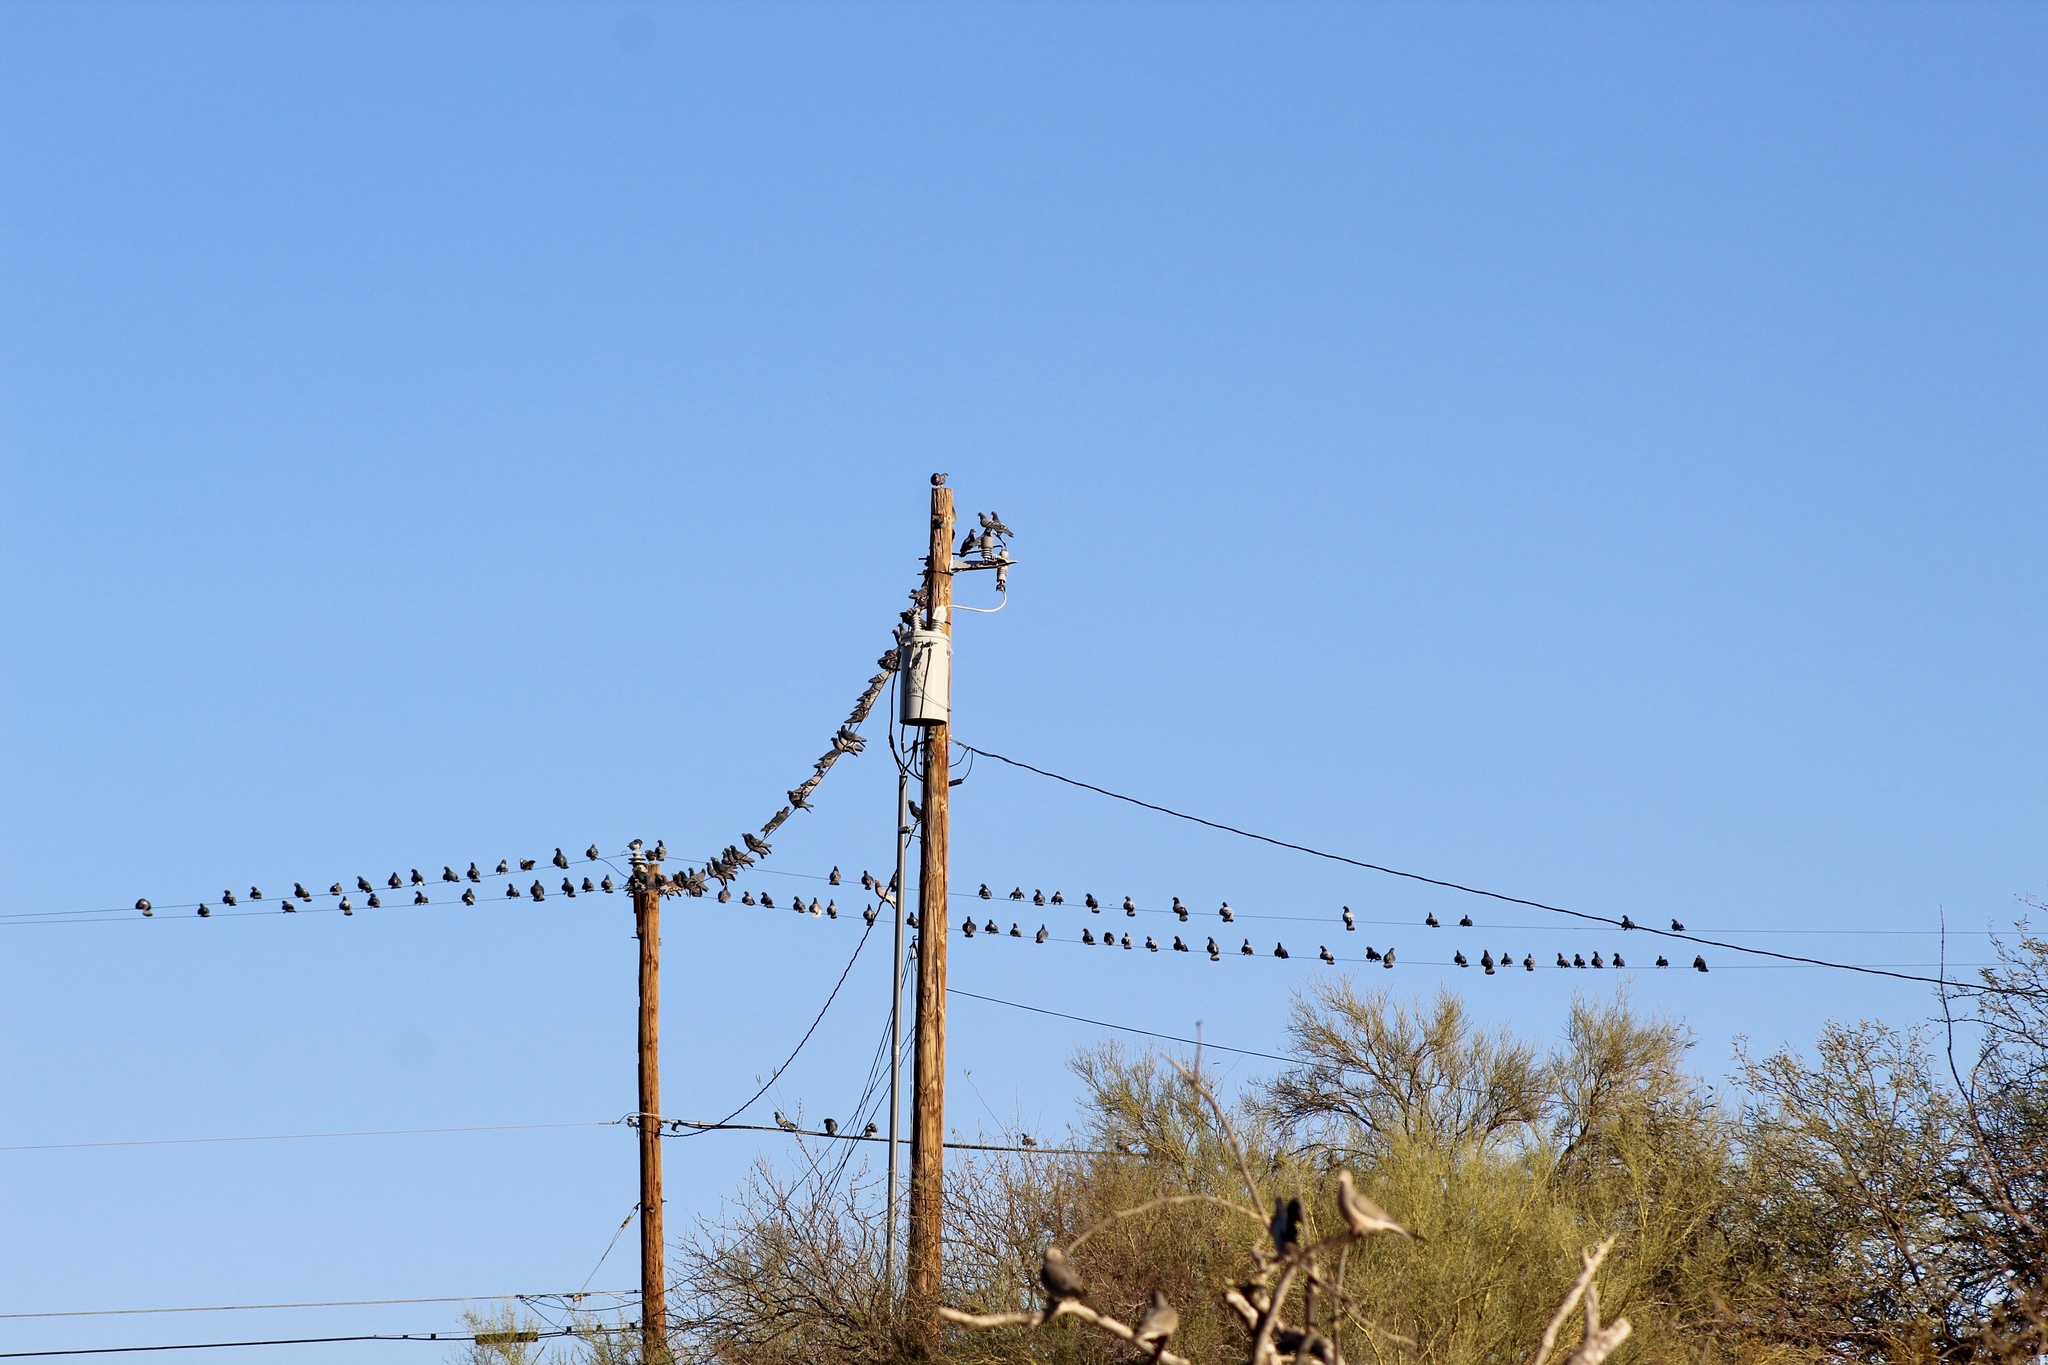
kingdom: Animalia
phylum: Chordata
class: Aves
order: Columbiformes
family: Columbidae
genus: Columba
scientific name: Columba livia
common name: Rock pigeon
